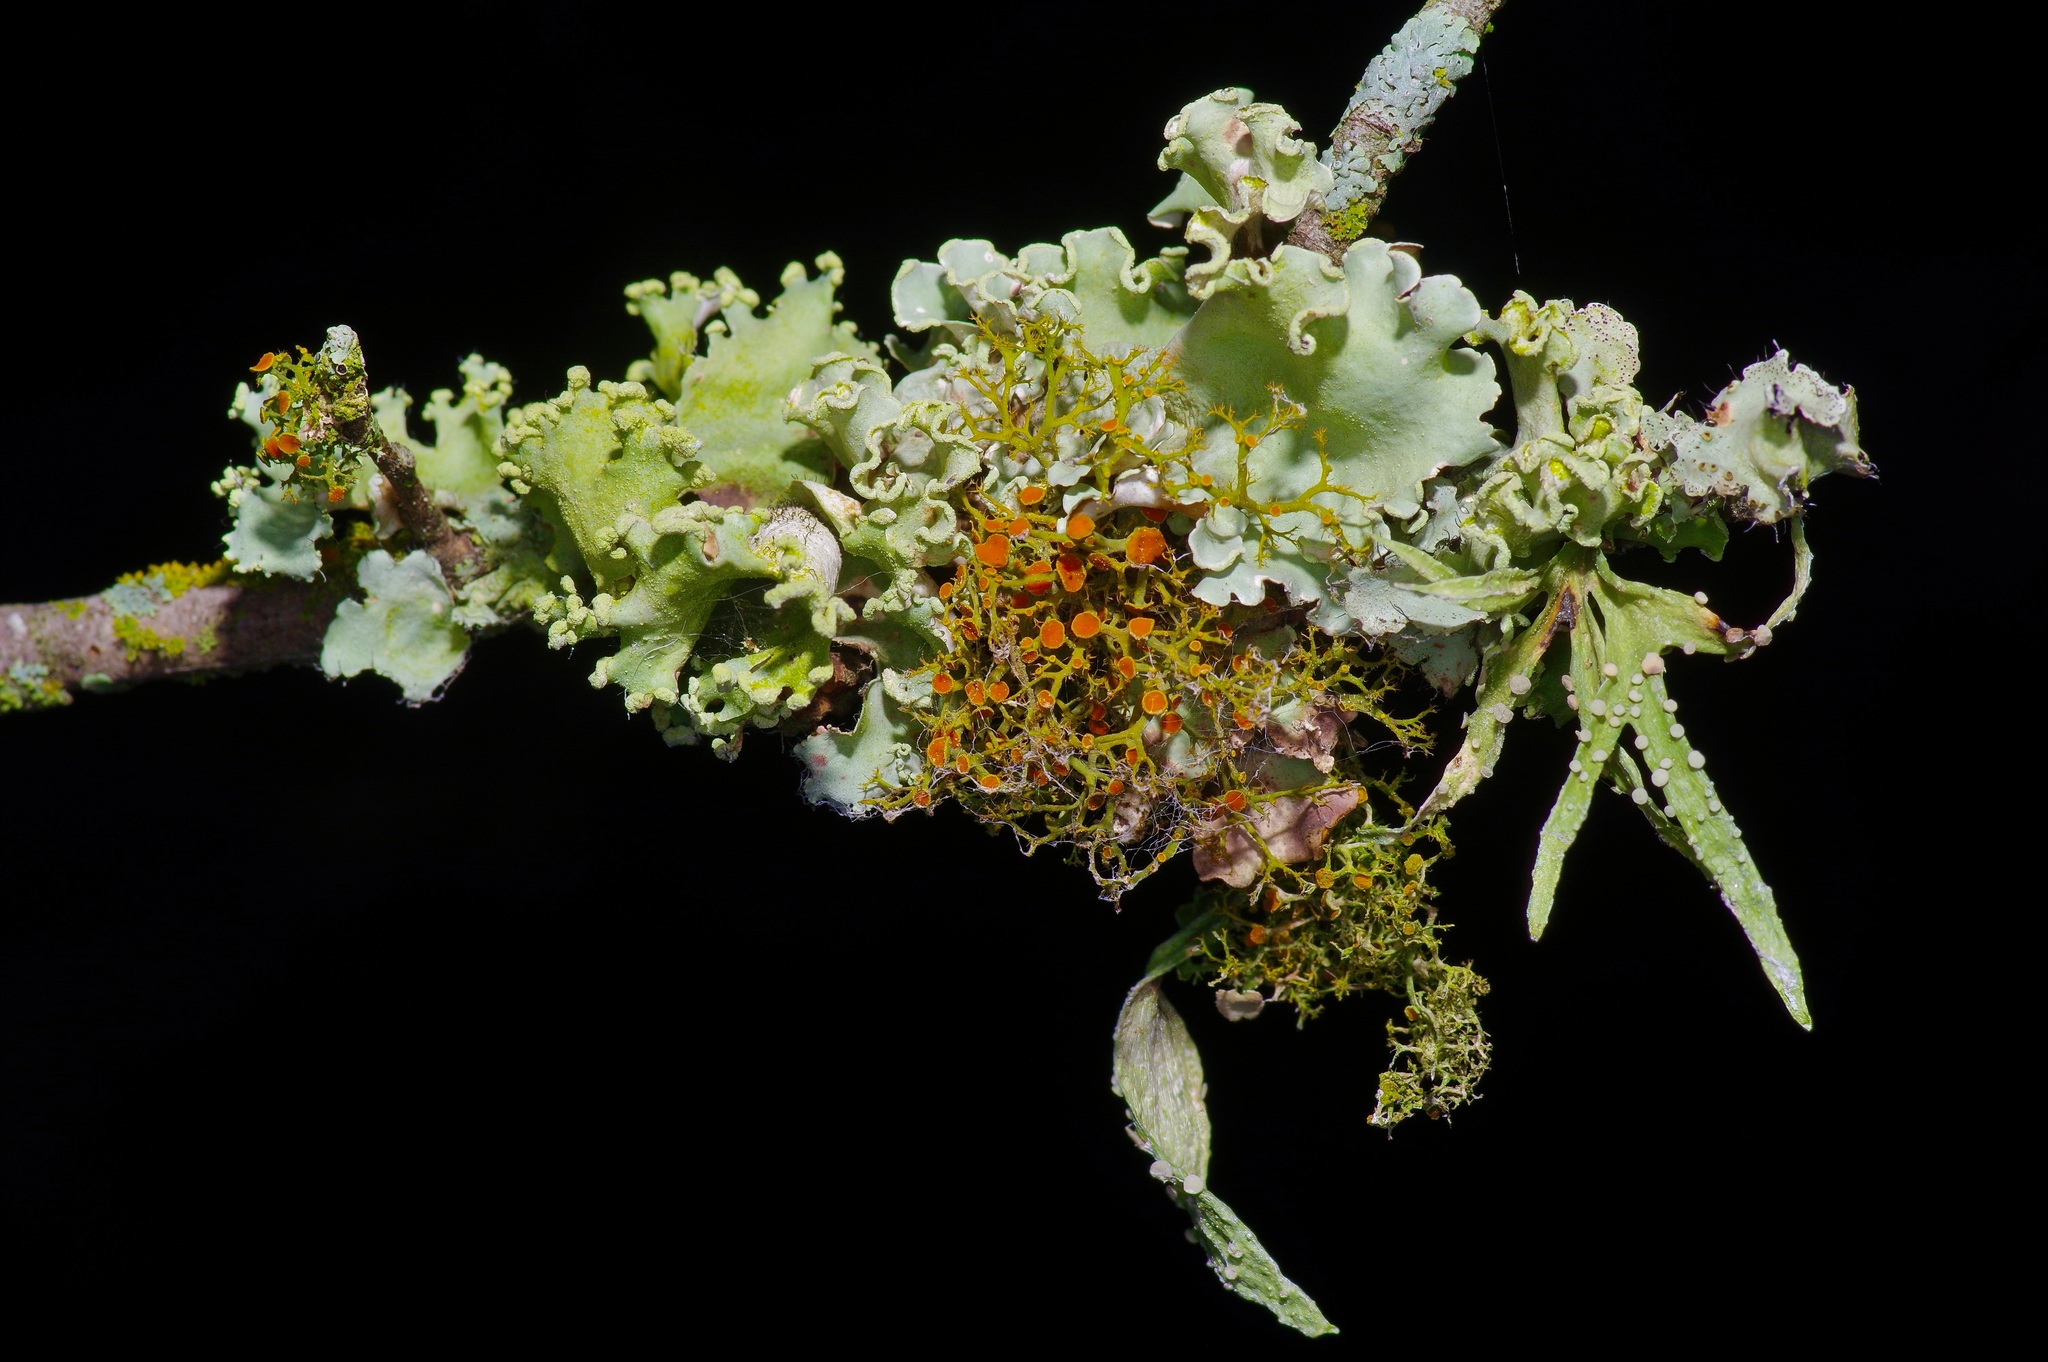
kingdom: Fungi
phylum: Ascomycota
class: Lecanoromycetes
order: Teloschistales
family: Teloschistaceae
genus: Teloschistes
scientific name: Teloschistes exilis
